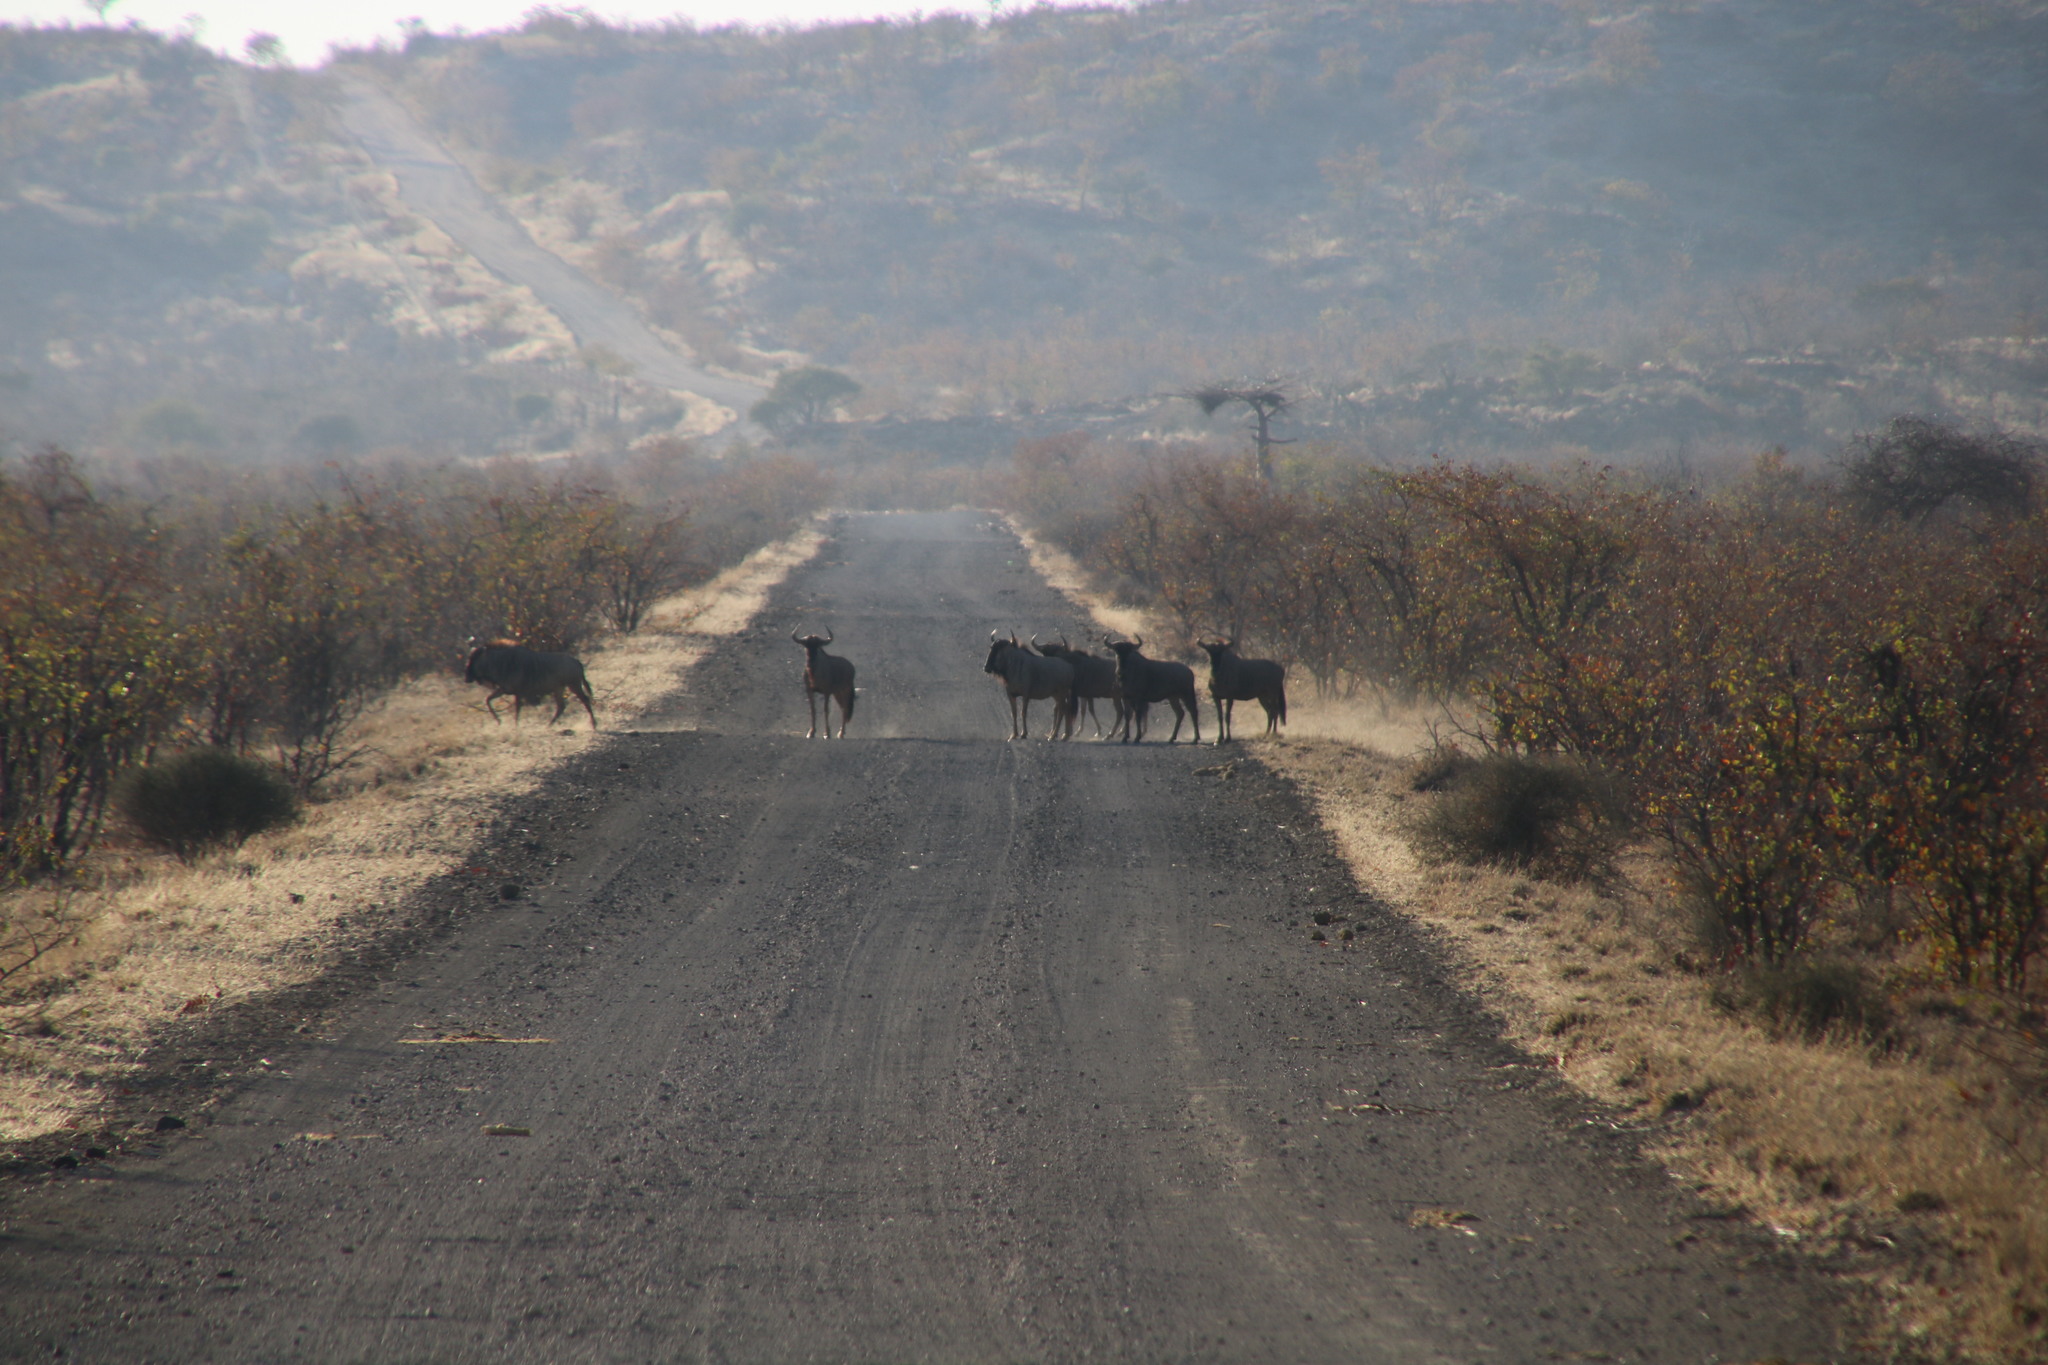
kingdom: Animalia
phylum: Chordata
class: Mammalia
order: Artiodactyla
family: Bovidae
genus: Connochaetes
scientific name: Connochaetes taurinus
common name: Blue wildebeest
